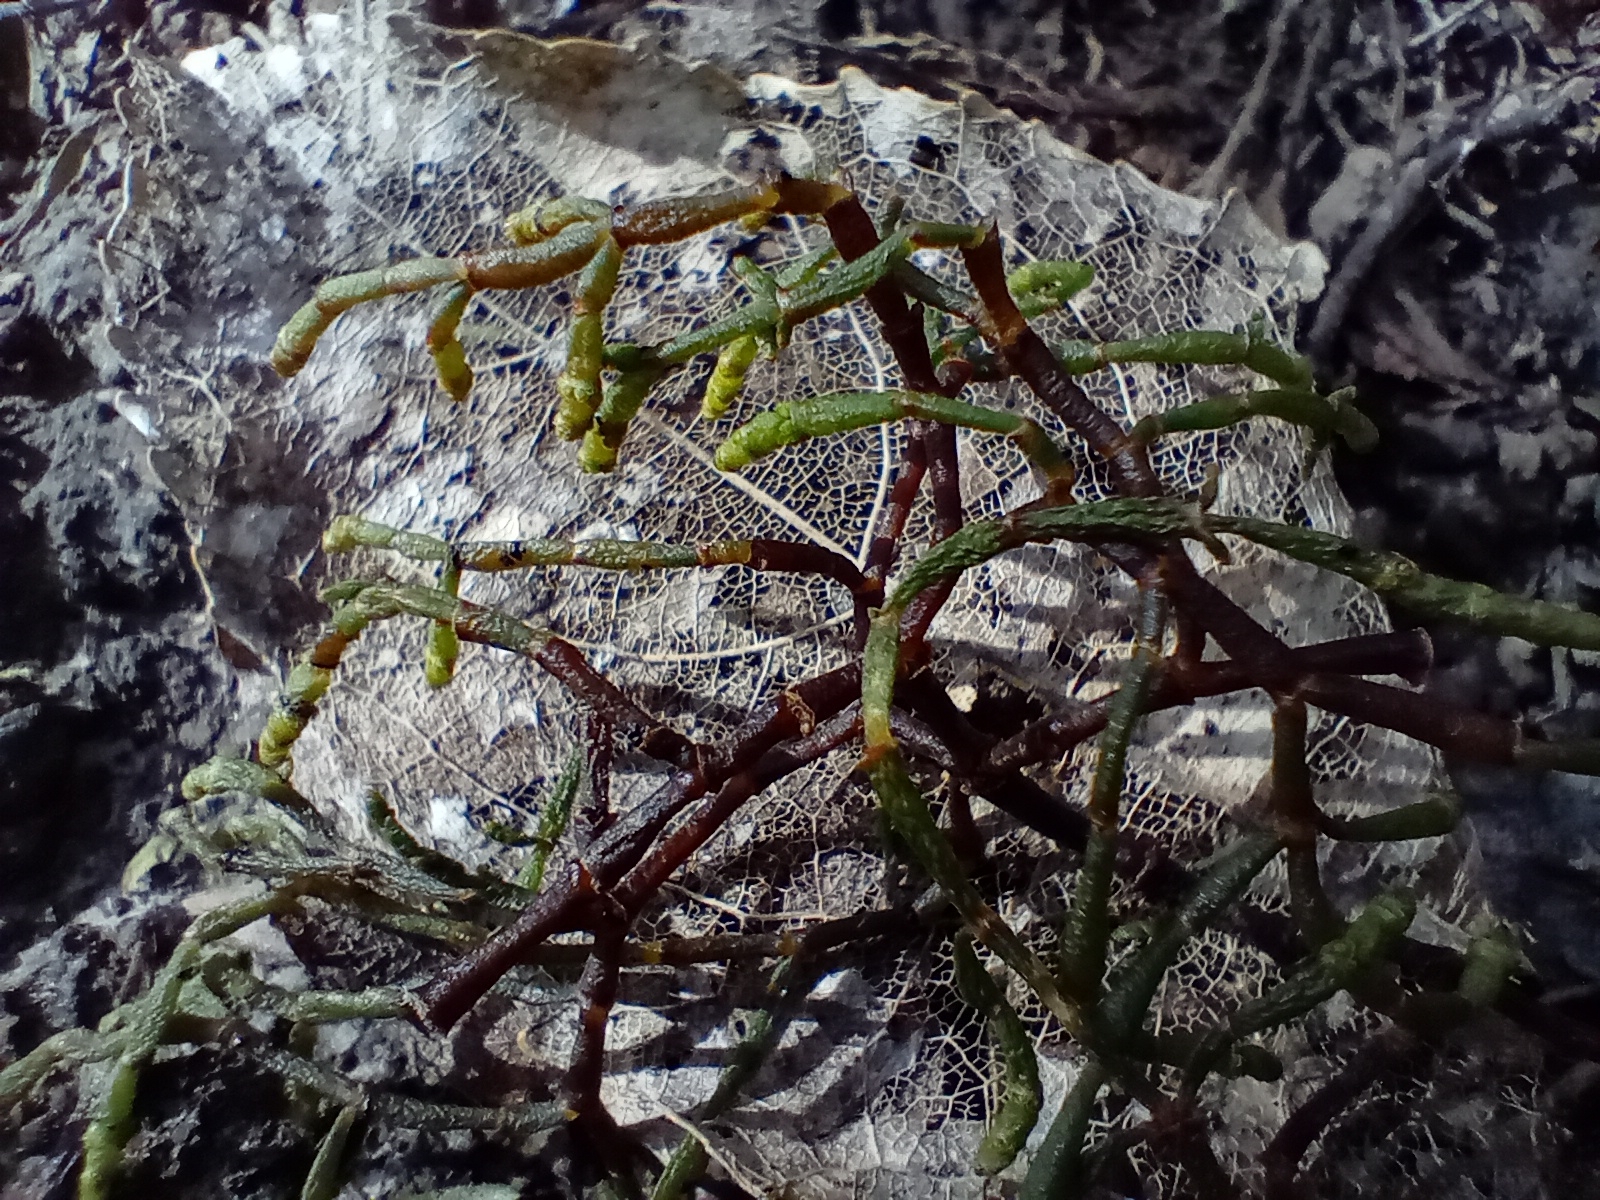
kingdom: Plantae
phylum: Tracheophyta
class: Magnoliopsida
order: Santalales
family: Viscaceae
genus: Korthalsella
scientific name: Korthalsella salicornioides
